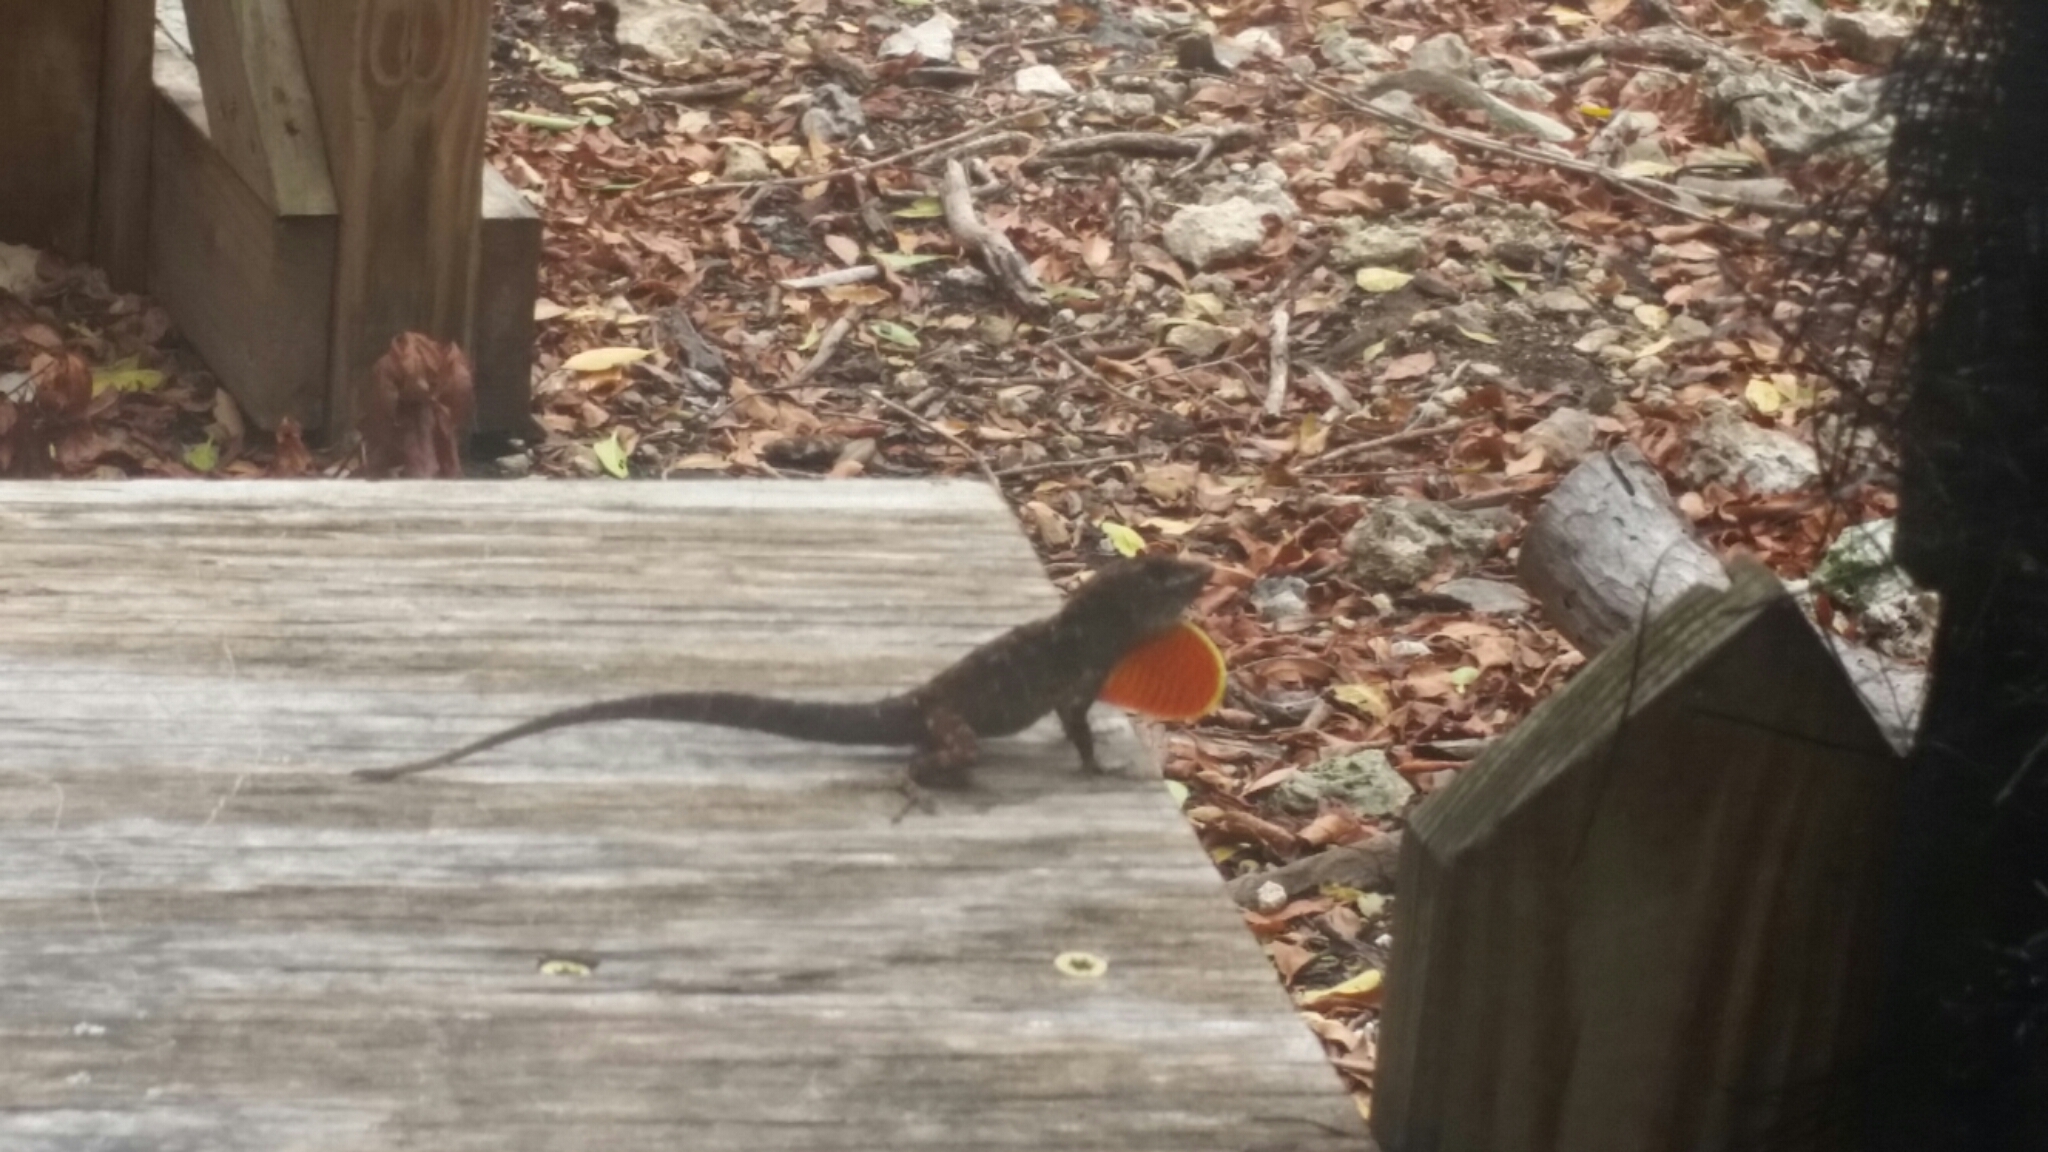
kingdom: Animalia
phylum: Chordata
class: Squamata
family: Dactyloidae
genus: Anolis
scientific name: Anolis sagrei
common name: Brown anole
